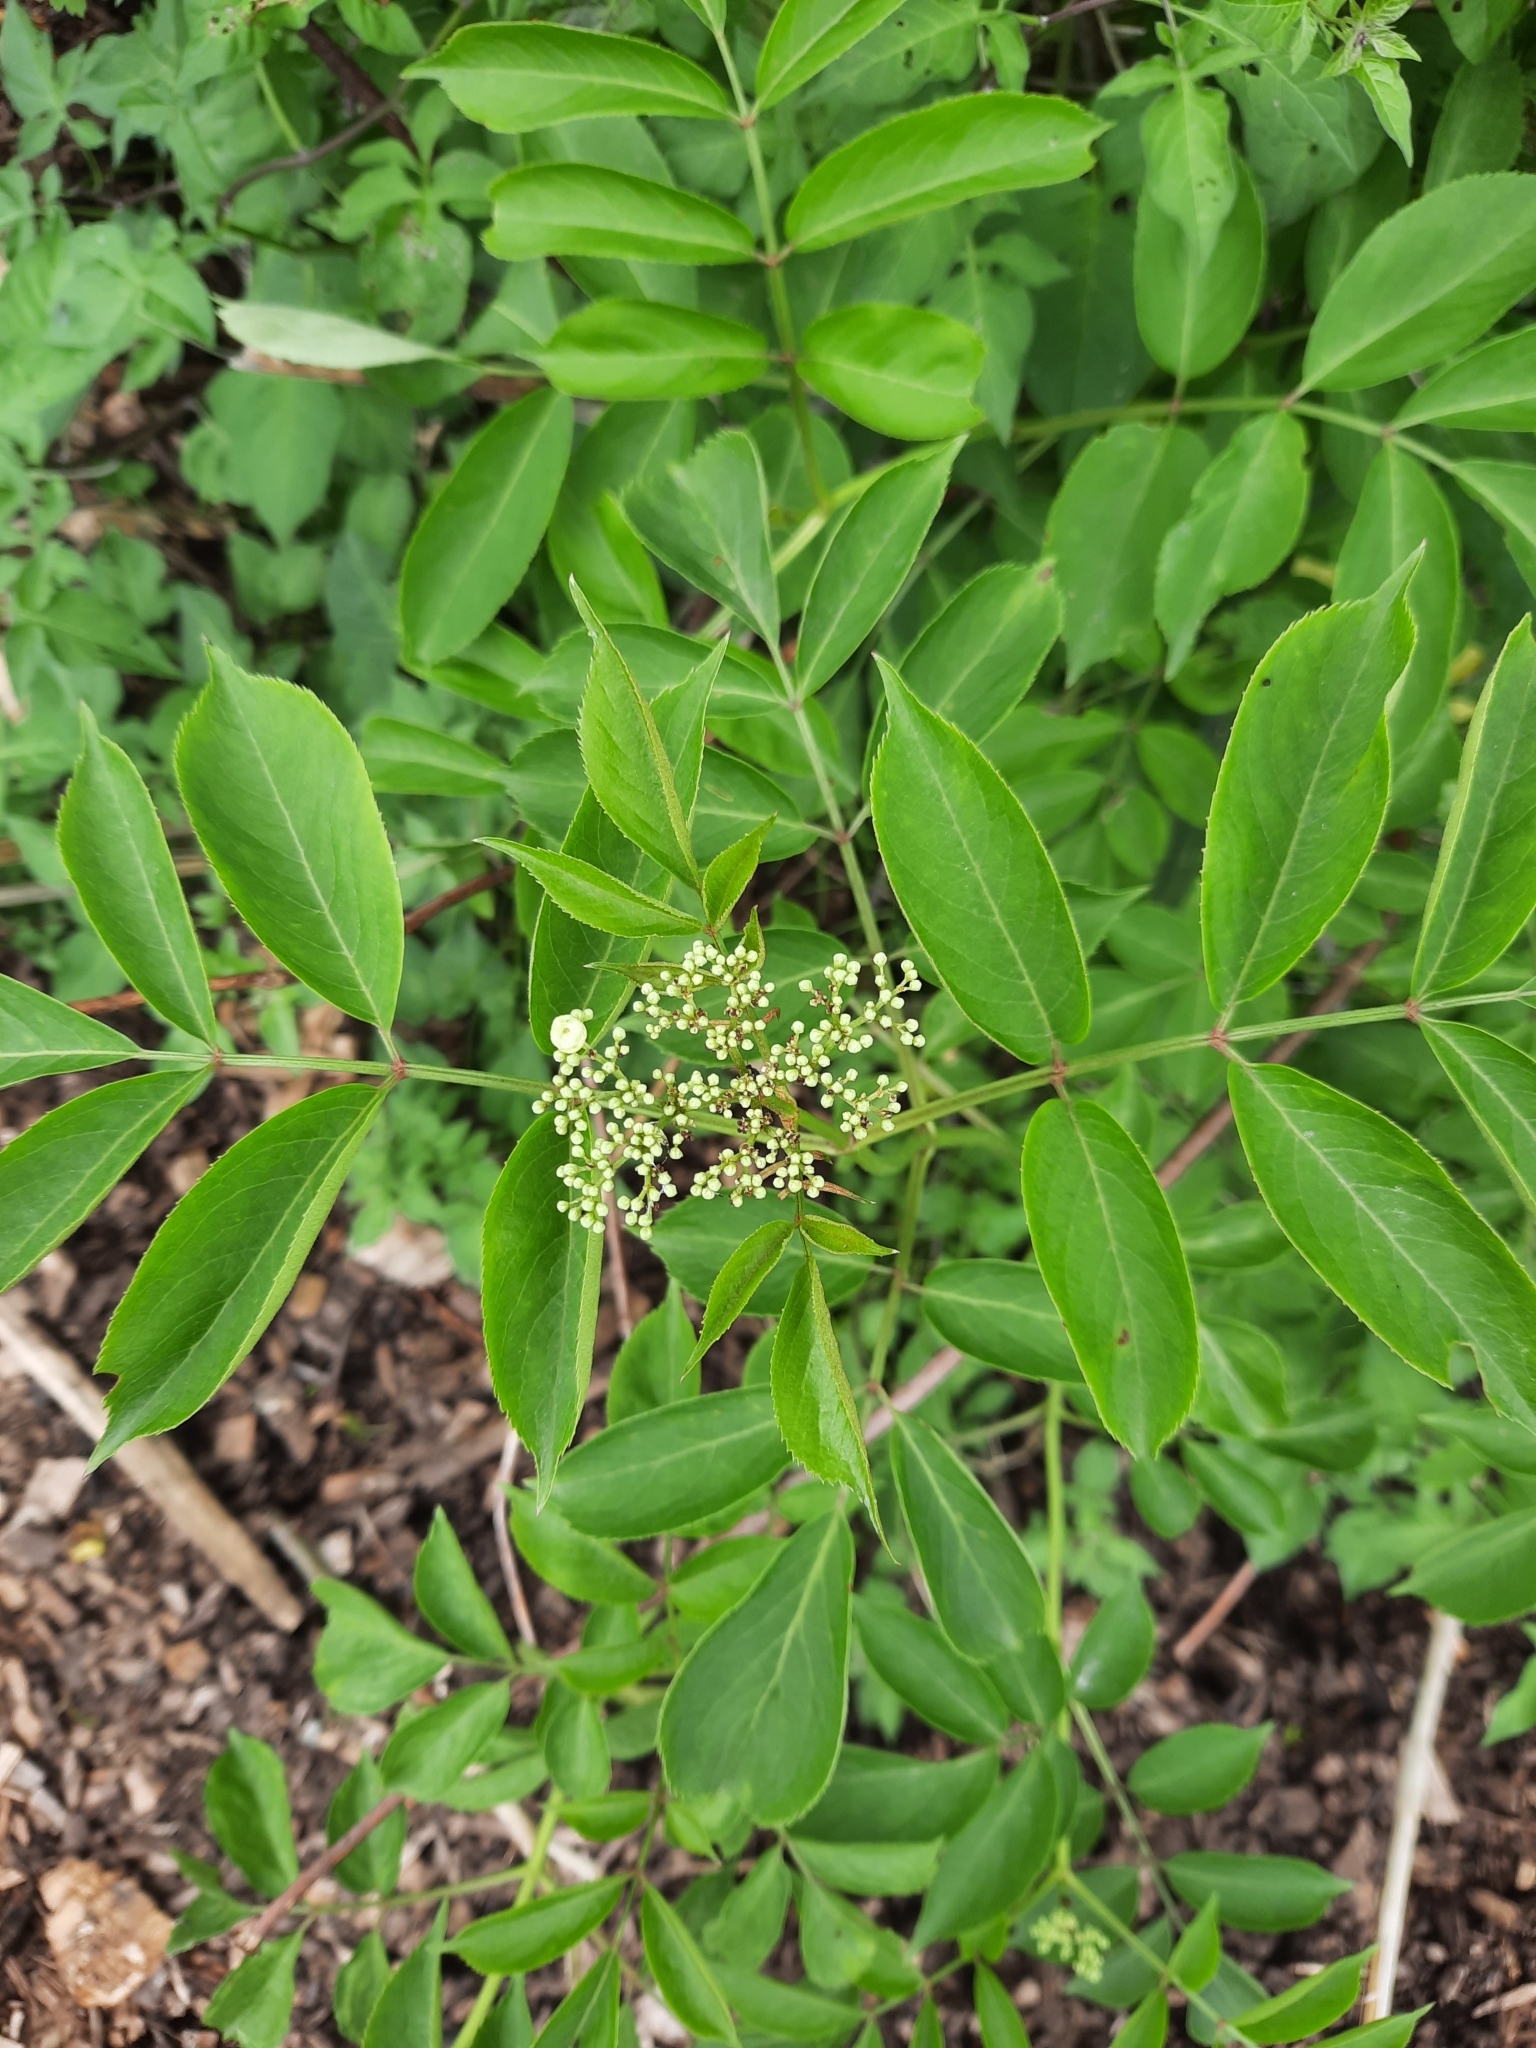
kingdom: Plantae
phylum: Tracheophyta
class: Magnoliopsida
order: Dipsacales
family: Viburnaceae
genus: Sambucus
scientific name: Sambucus canadensis
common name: American elder
